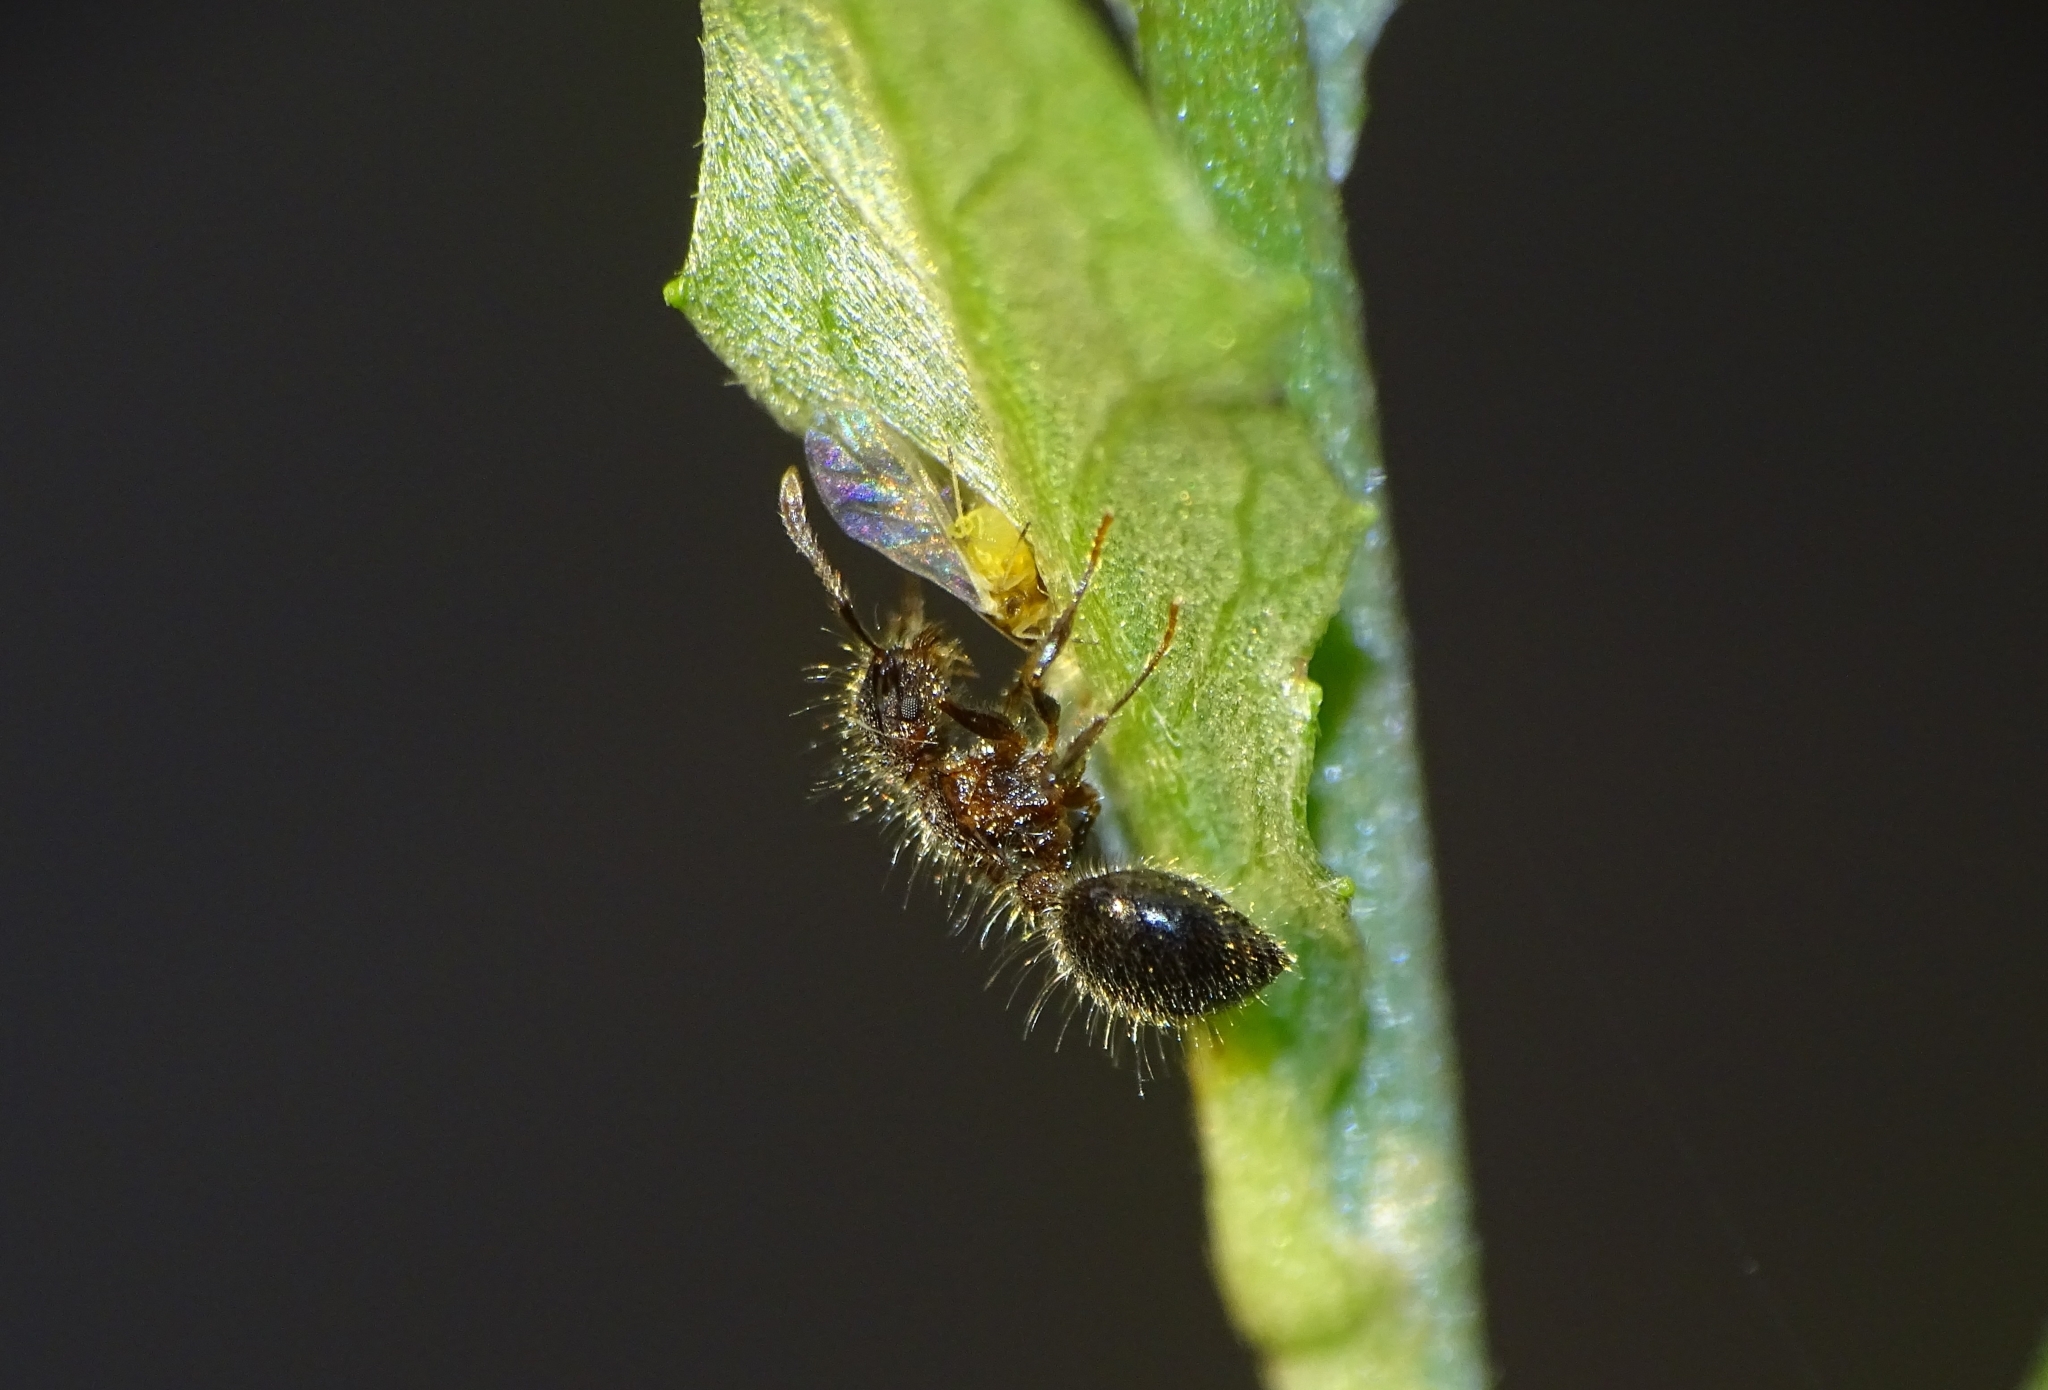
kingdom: Animalia
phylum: Arthropoda
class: Insecta
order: Hymenoptera
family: Formicidae
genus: Meranoplus
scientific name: Meranoplus bicolor
